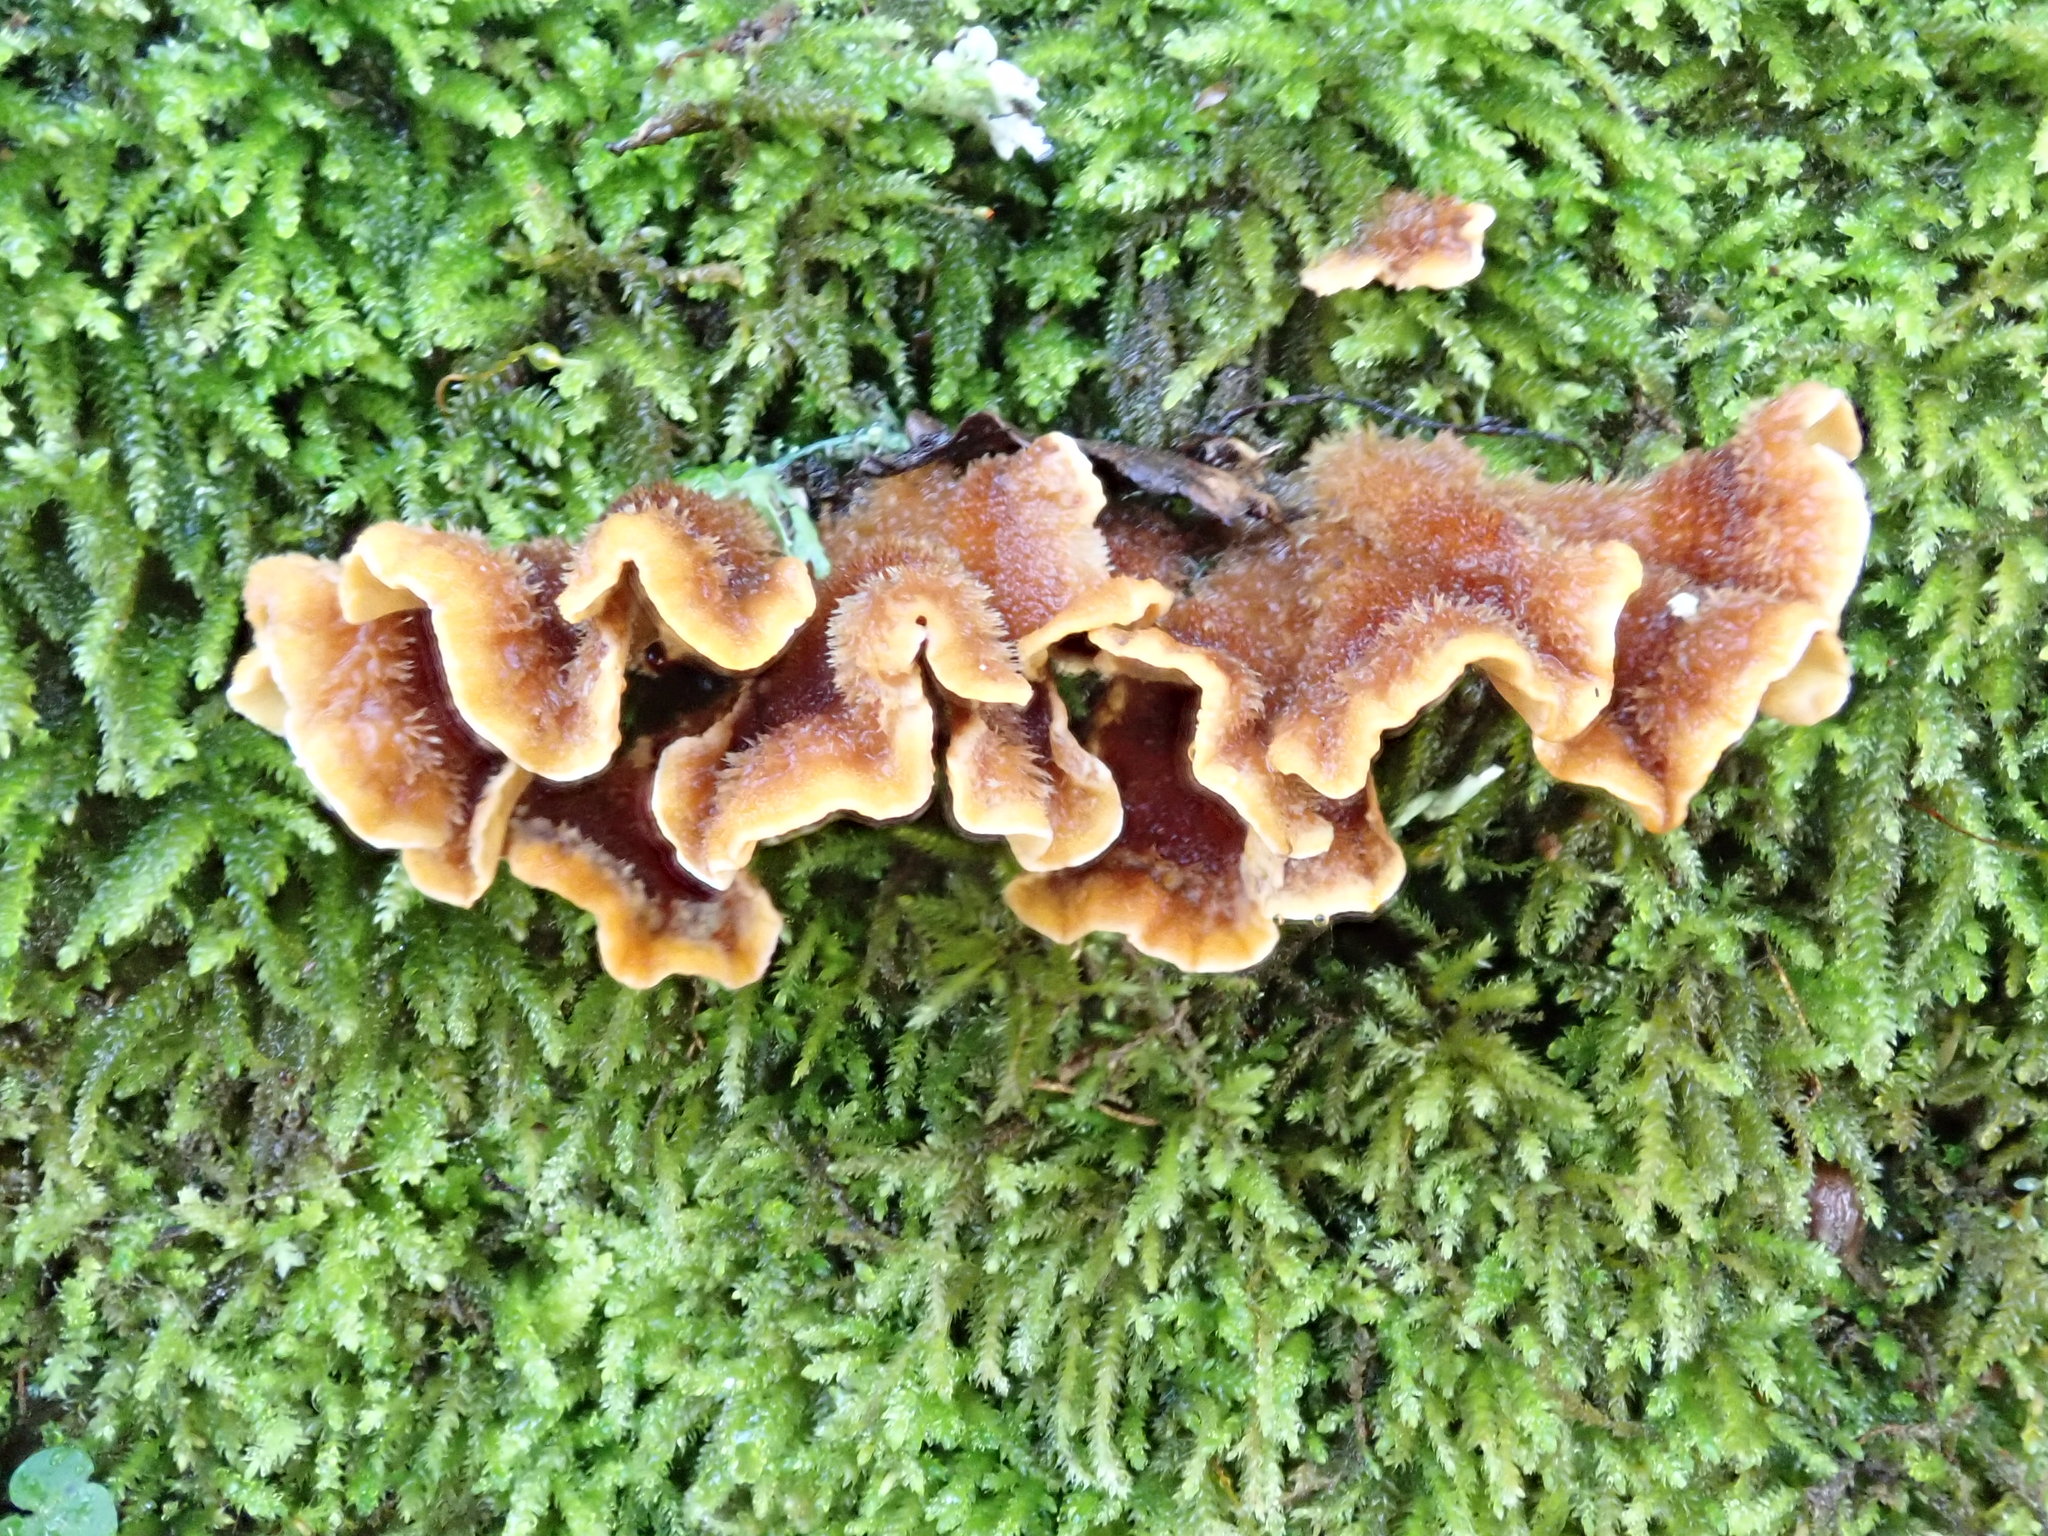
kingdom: Fungi
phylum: Basidiomycota
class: Agaricomycetes
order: Russulales
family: Stereaceae
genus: Stereum
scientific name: Stereum hirsutum
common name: Hairy curtain crust
